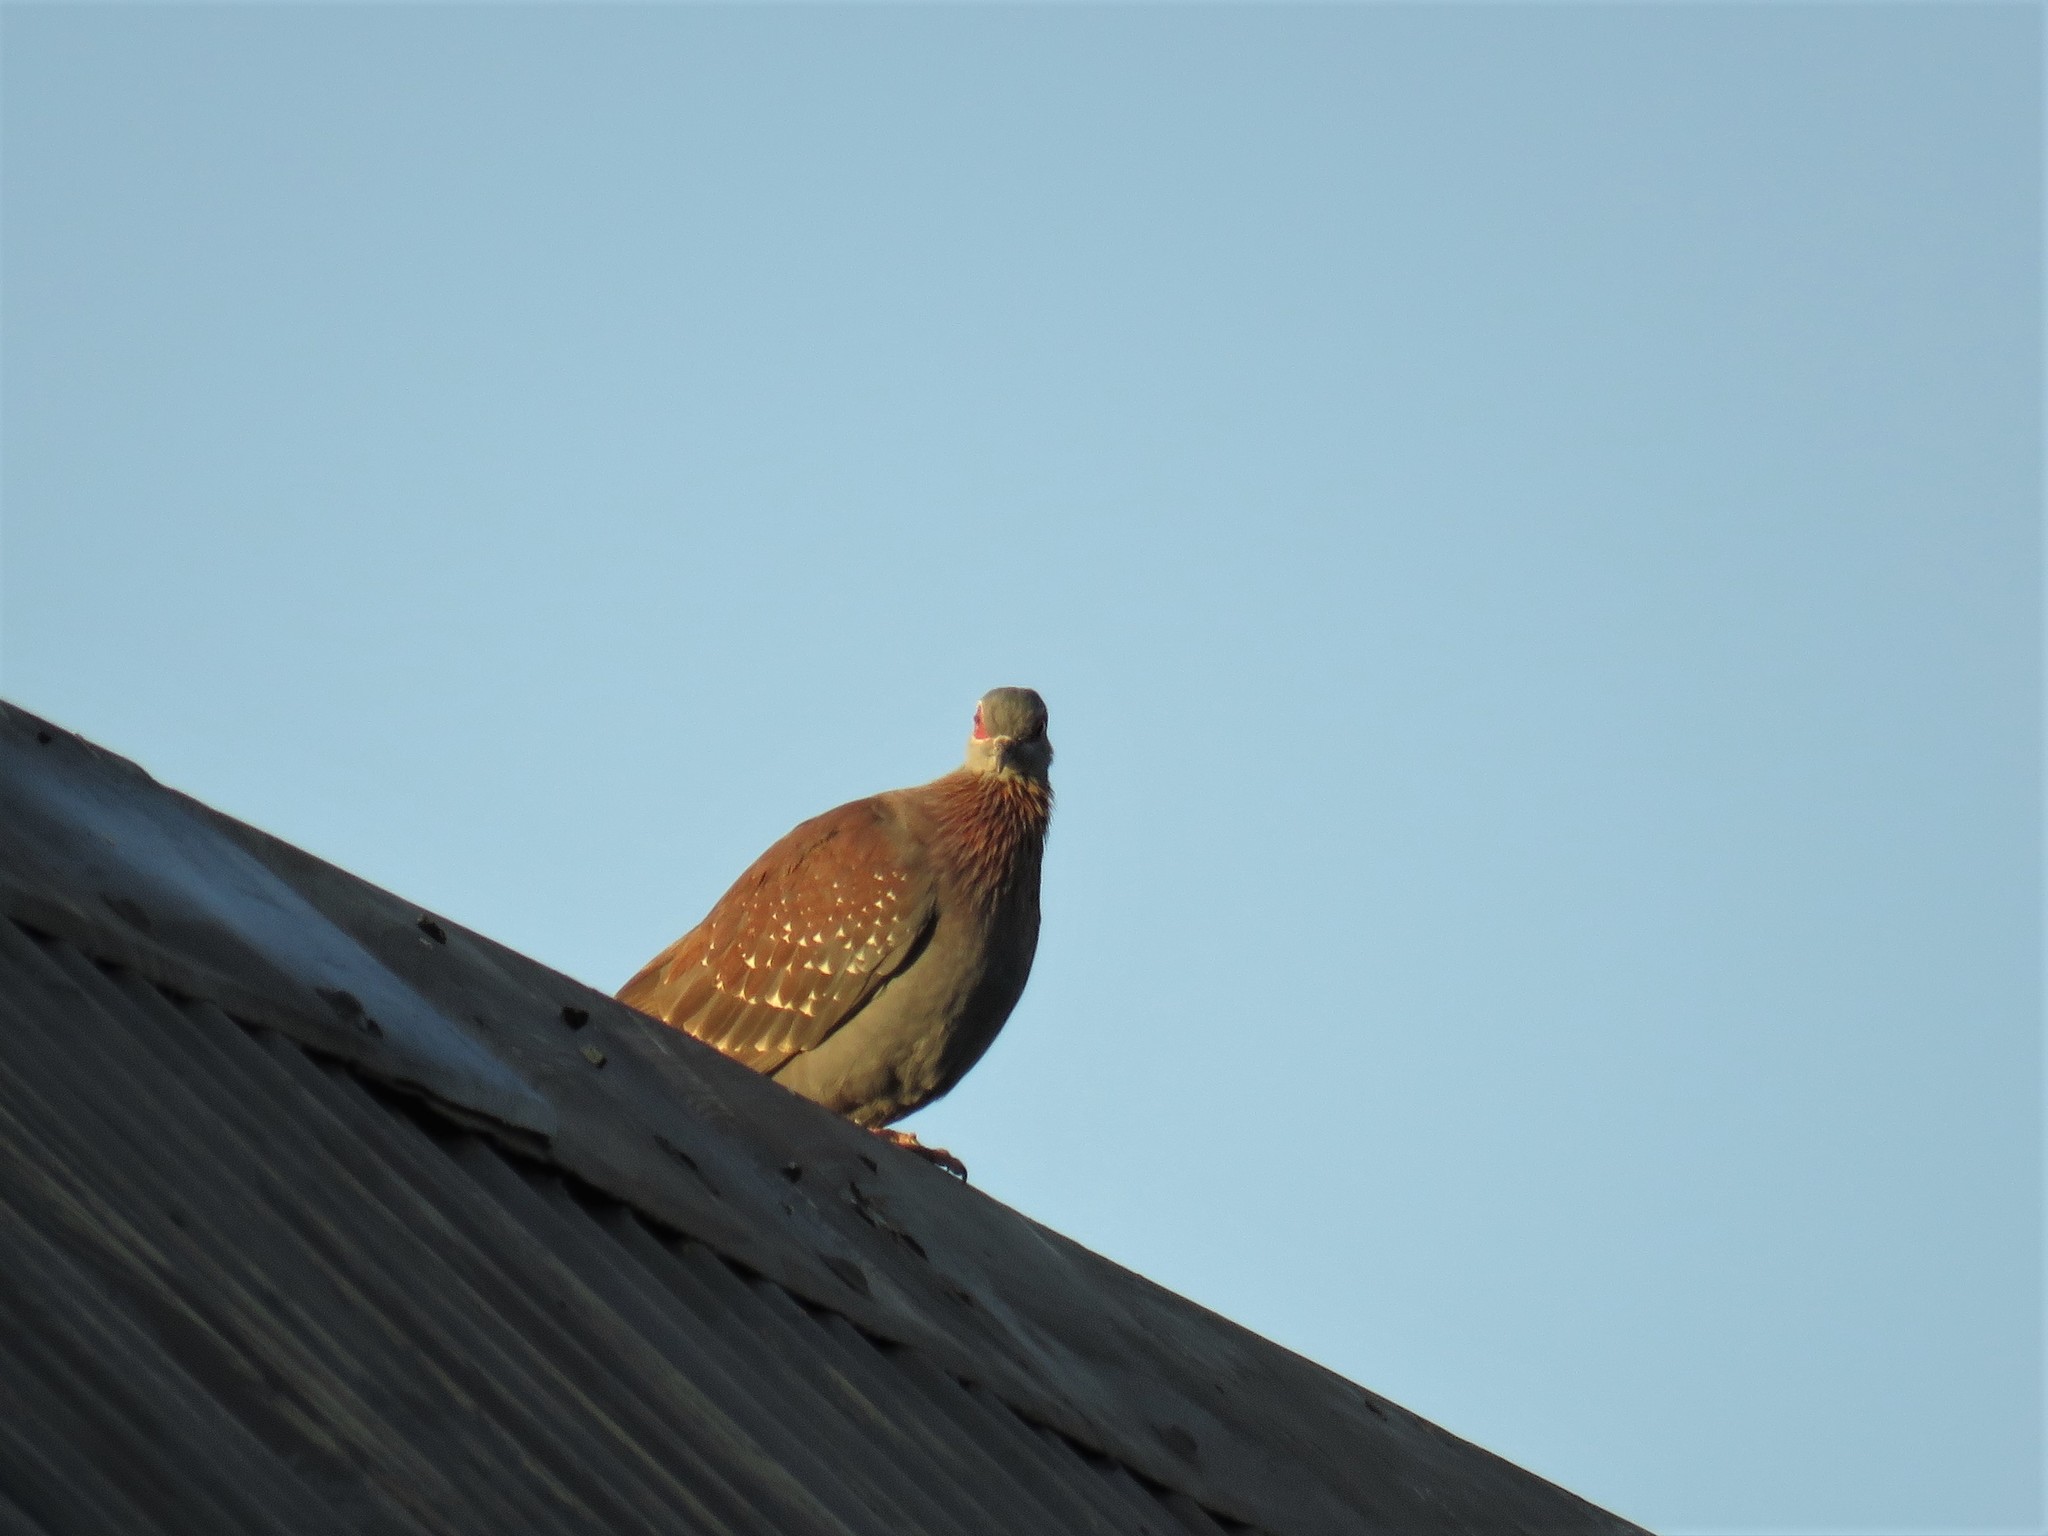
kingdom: Animalia
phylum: Chordata
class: Aves
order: Columbiformes
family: Columbidae
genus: Columba
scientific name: Columba guinea
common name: Speckled pigeon
